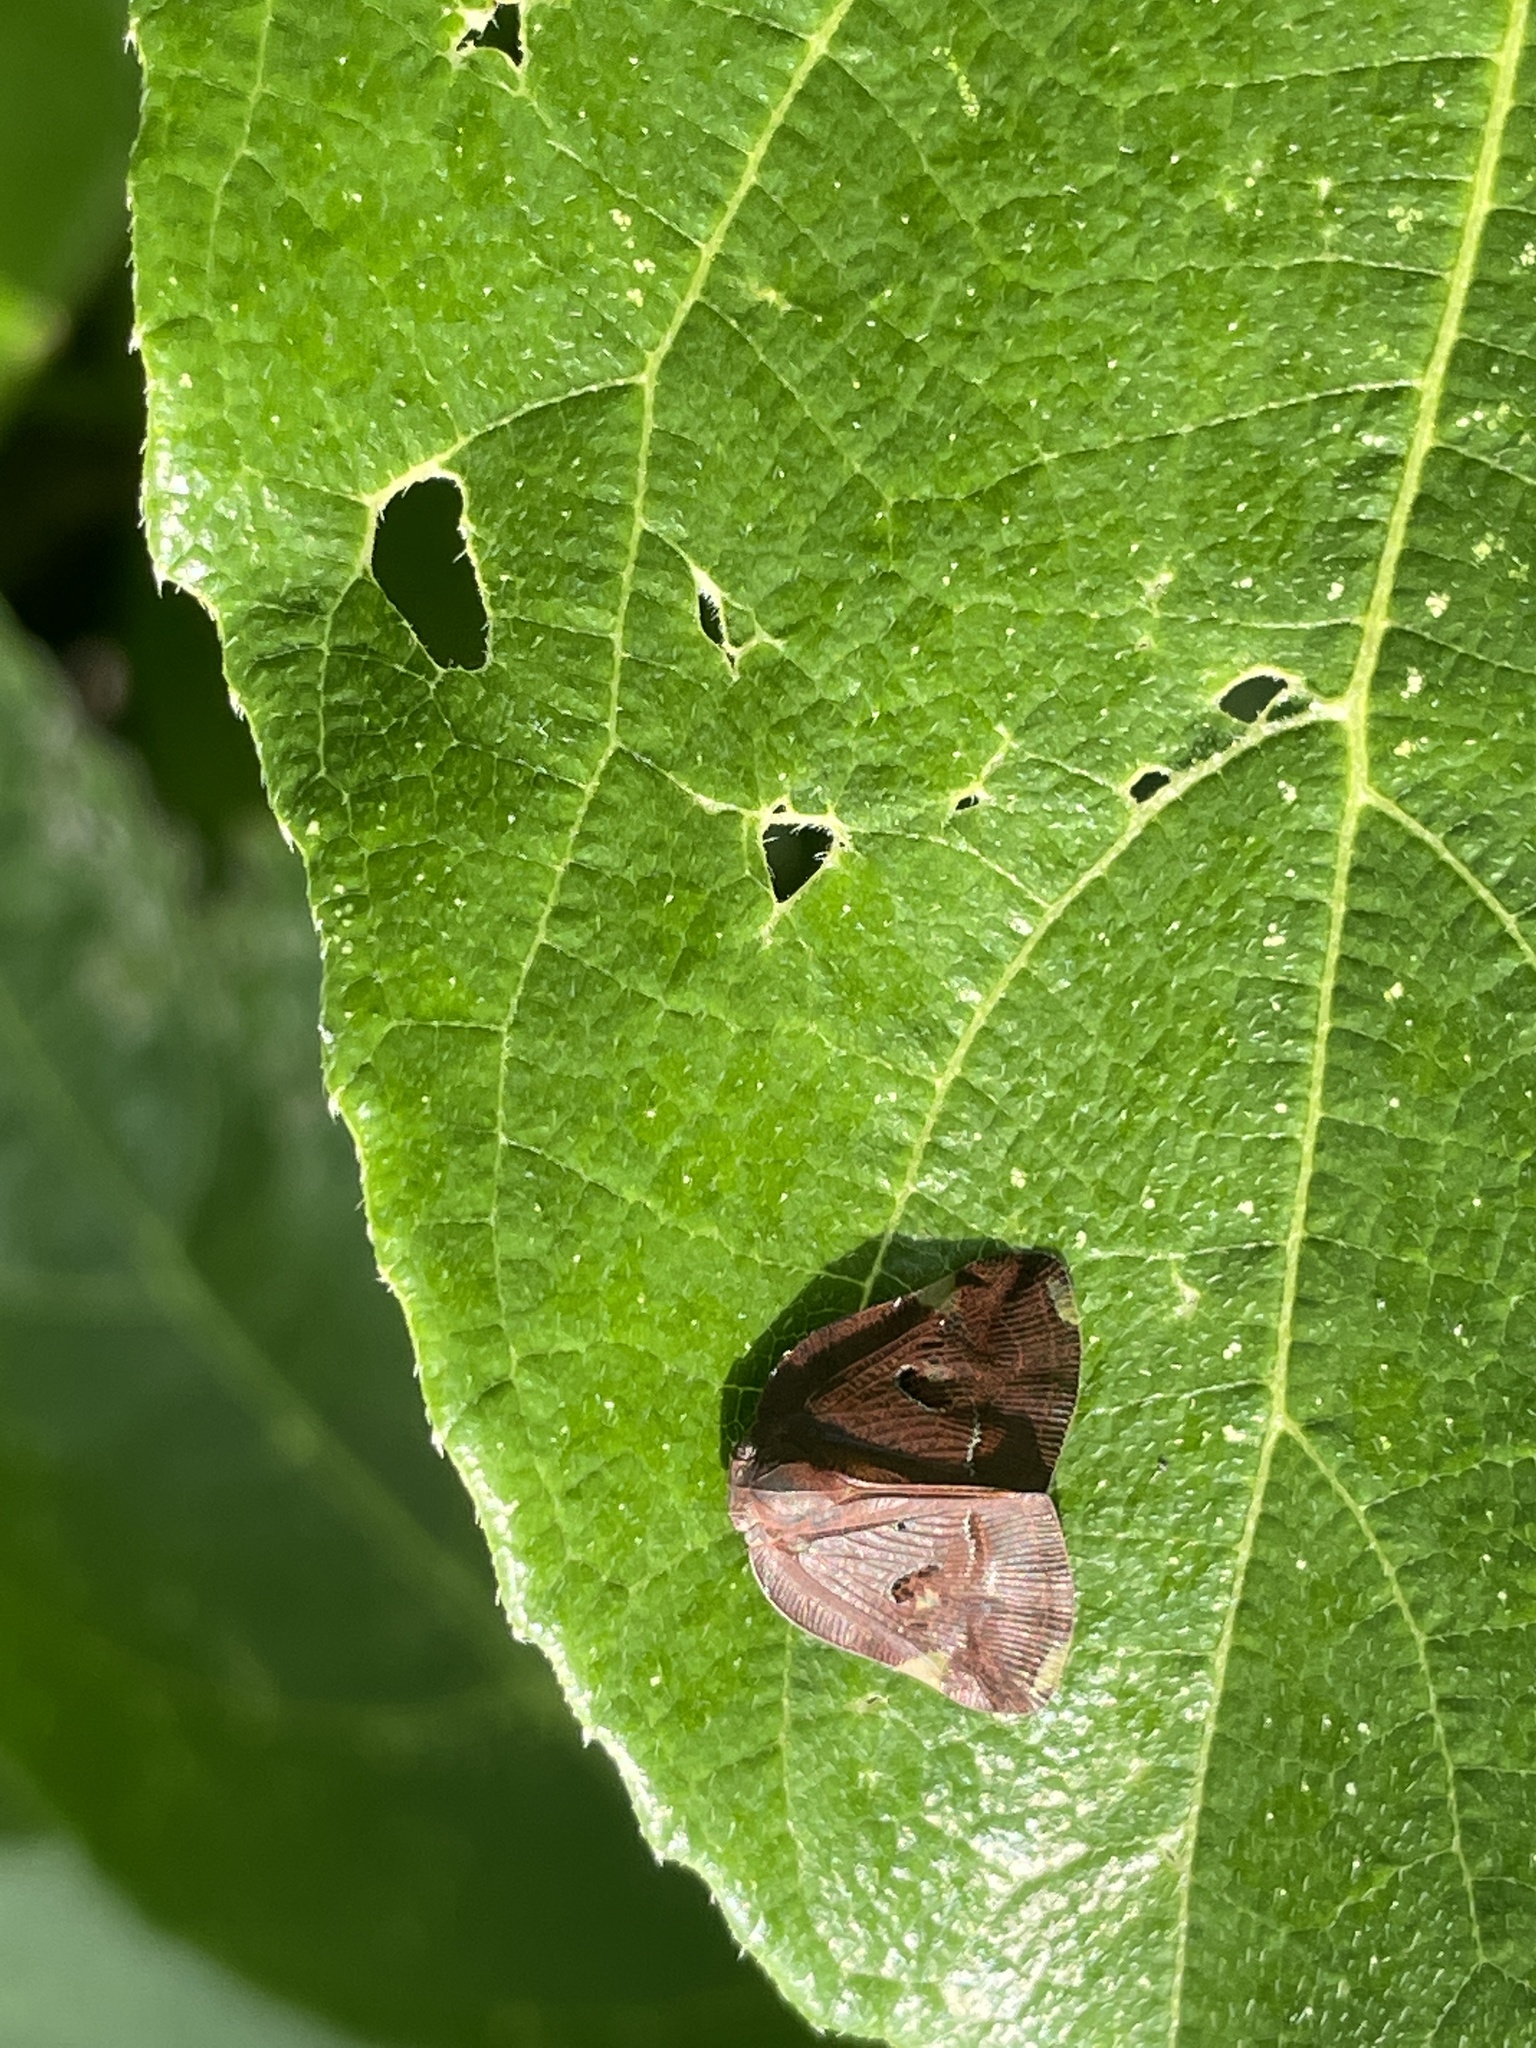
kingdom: Animalia
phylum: Arthropoda
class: Insecta
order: Hemiptera
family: Ricaniidae
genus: Ricania
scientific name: Ricania guttata
